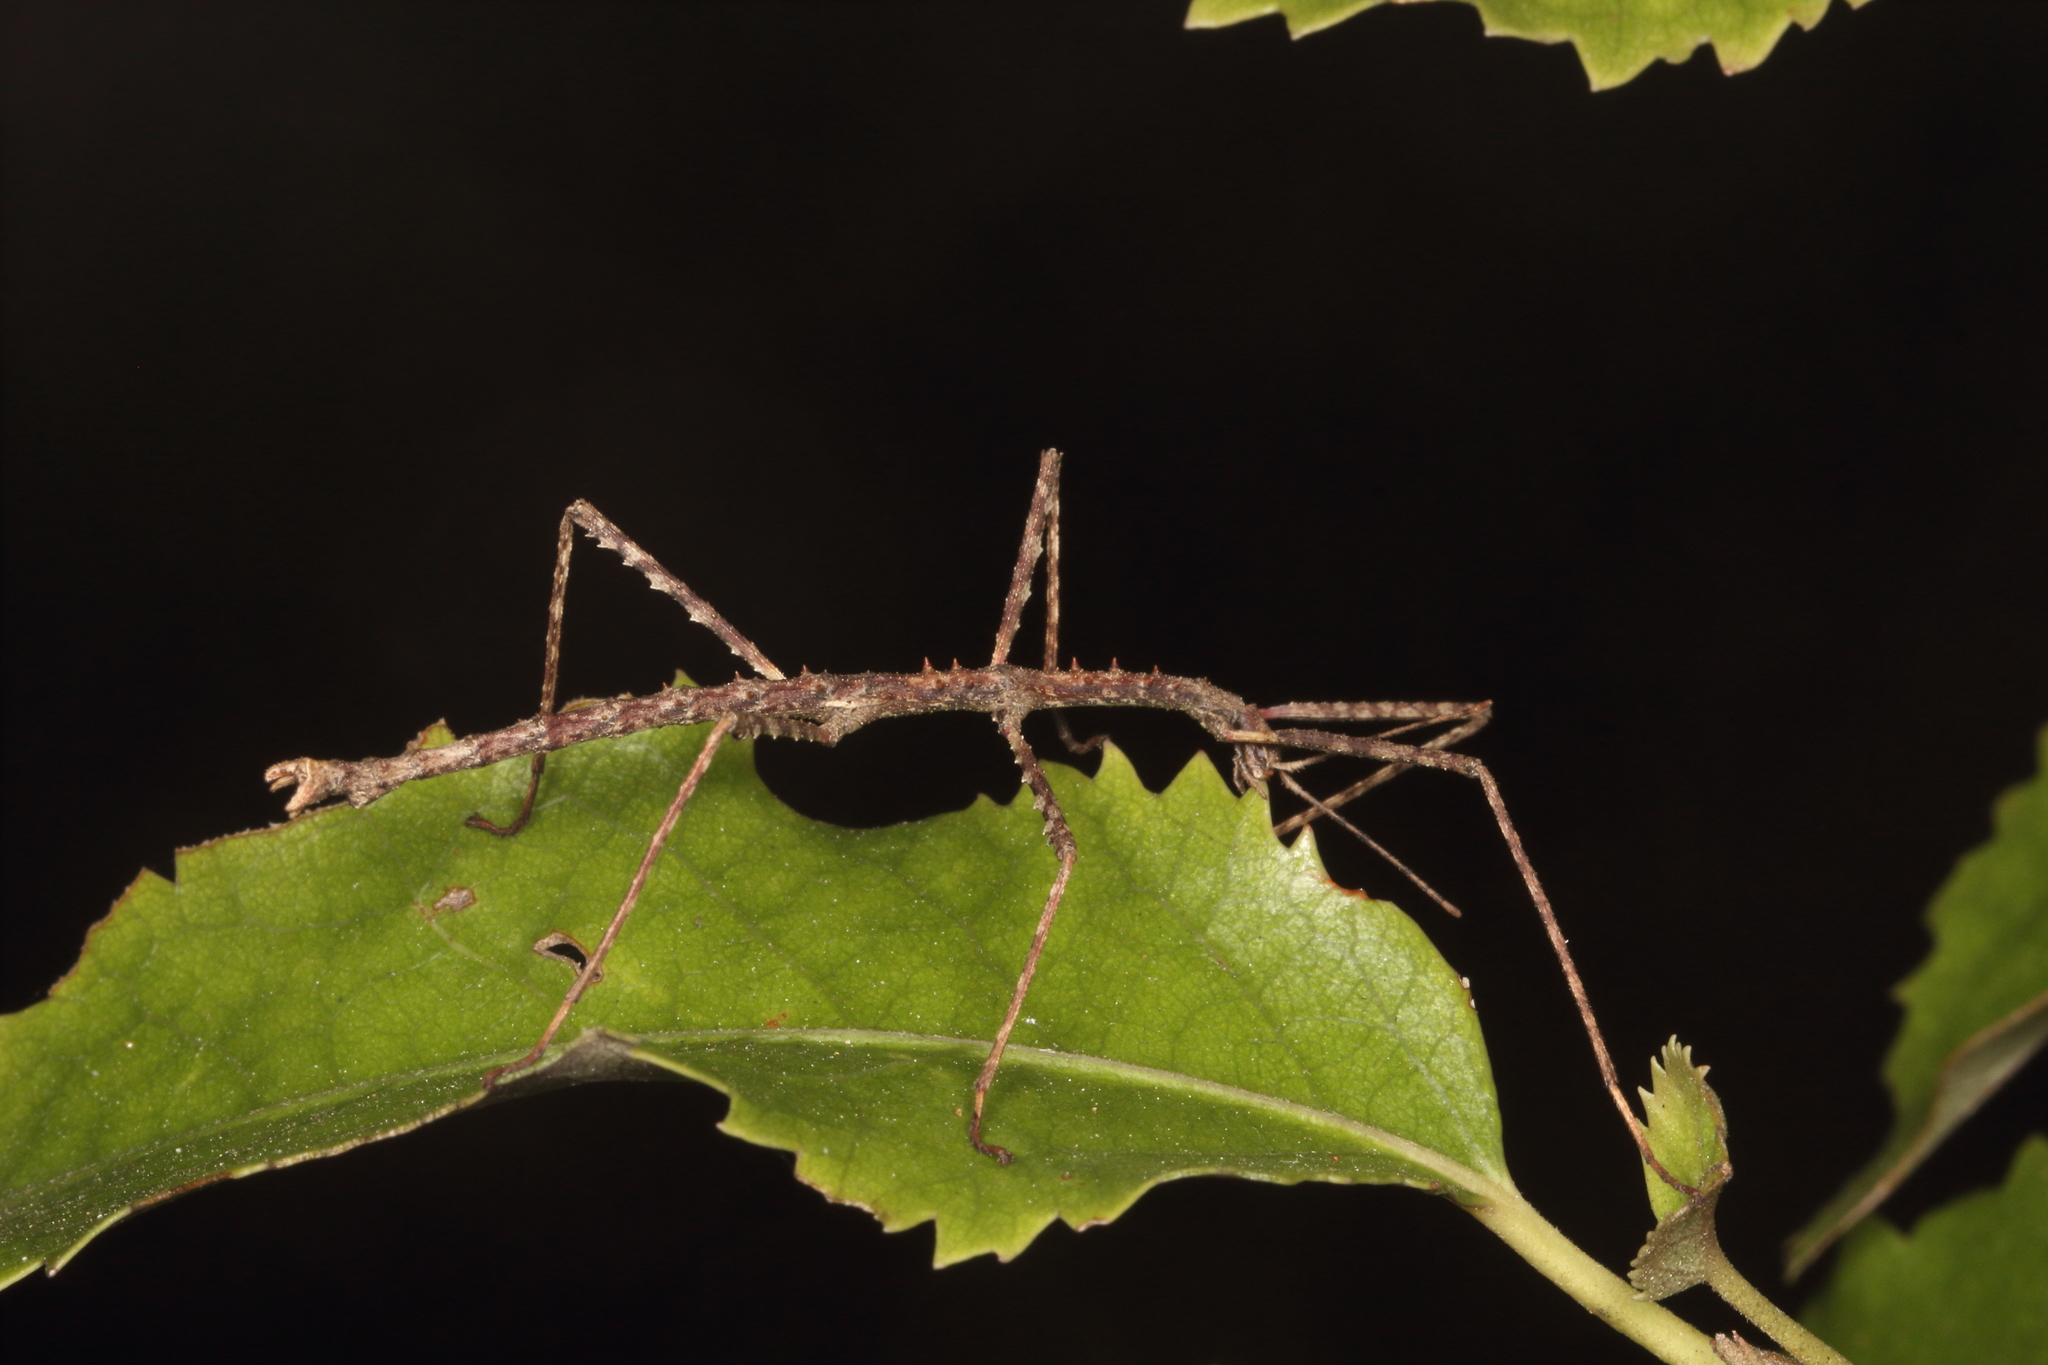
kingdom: Animalia
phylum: Arthropoda
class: Insecta
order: Phasmida
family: Phasmatidae
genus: Micrarchus
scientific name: Micrarchus hystriculeus
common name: The lesser spiny stick insect
